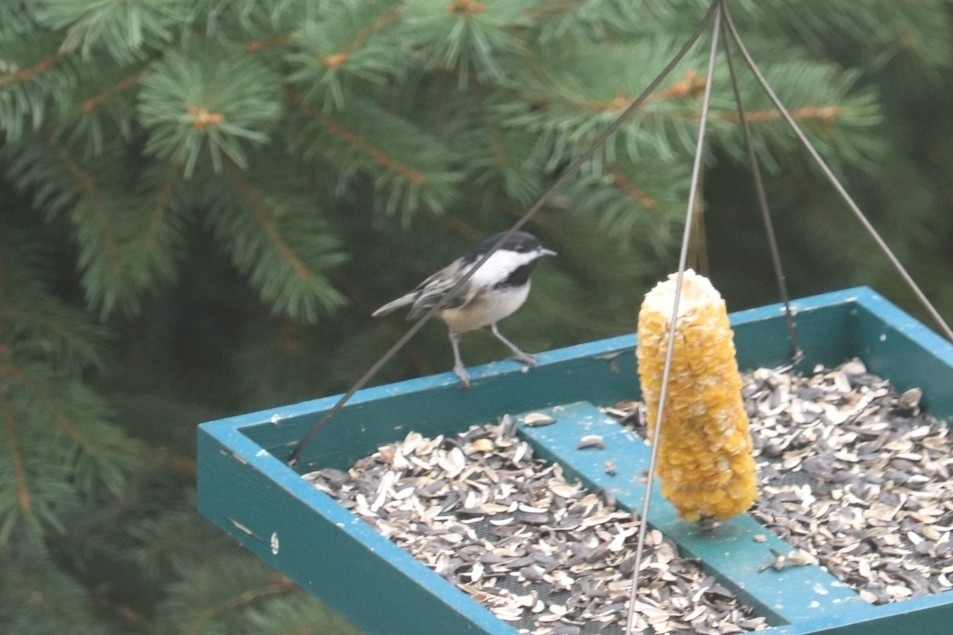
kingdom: Animalia
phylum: Chordata
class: Aves
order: Passeriformes
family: Paridae
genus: Poecile
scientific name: Poecile atricapillus
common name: Black-capped chickadee
